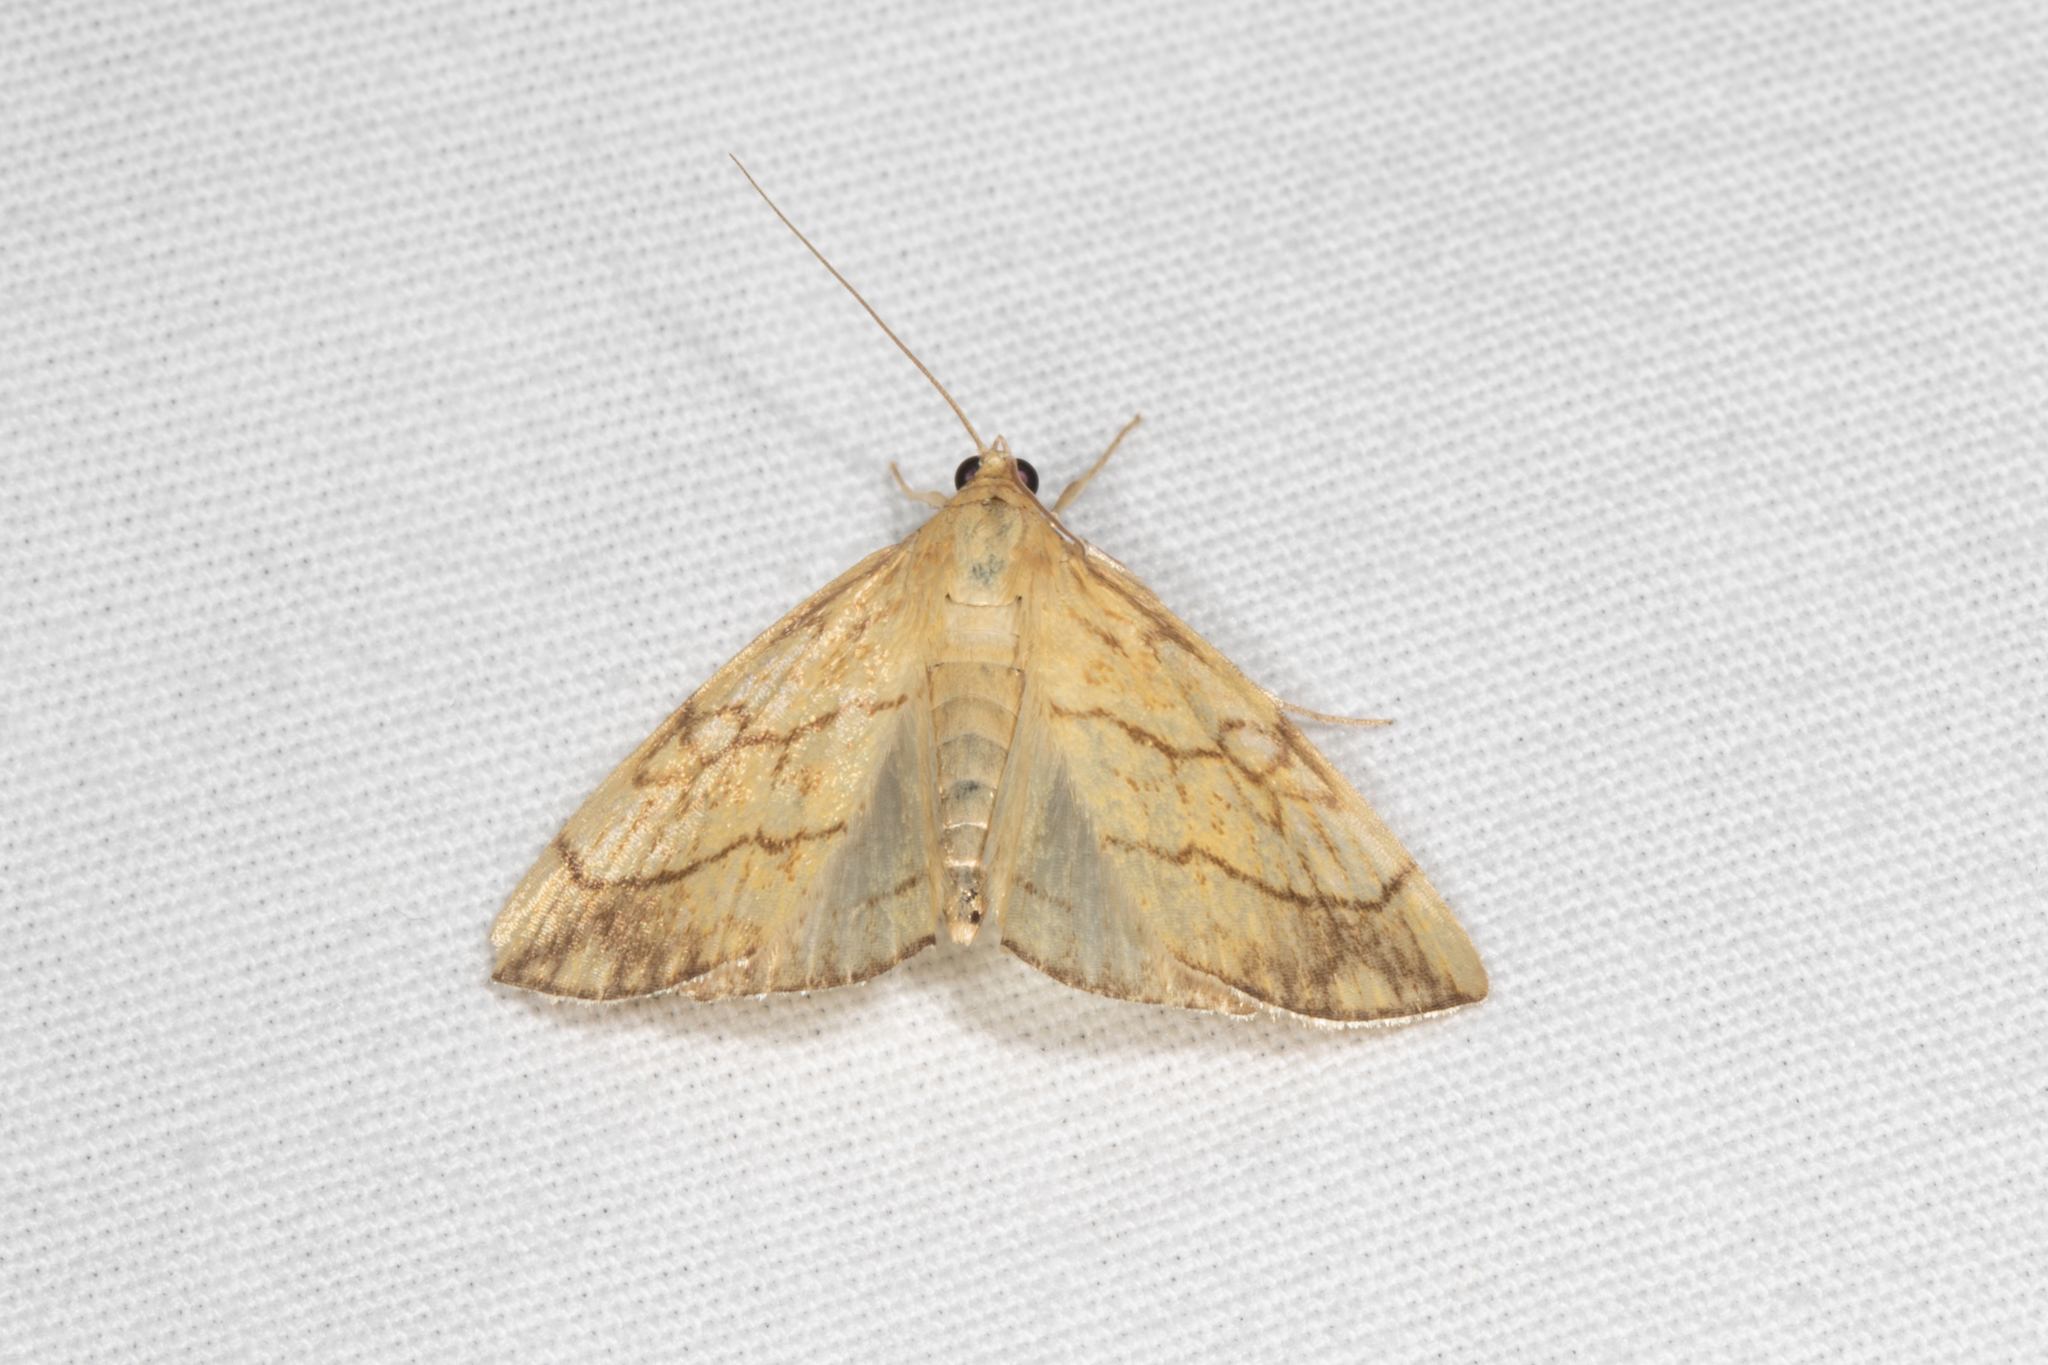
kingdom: Animalia
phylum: Arthropoda
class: Insecta
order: Lepidoptera
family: Crambidae
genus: Evergestis
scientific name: Evergestis pallidata
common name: Chequered pearl
